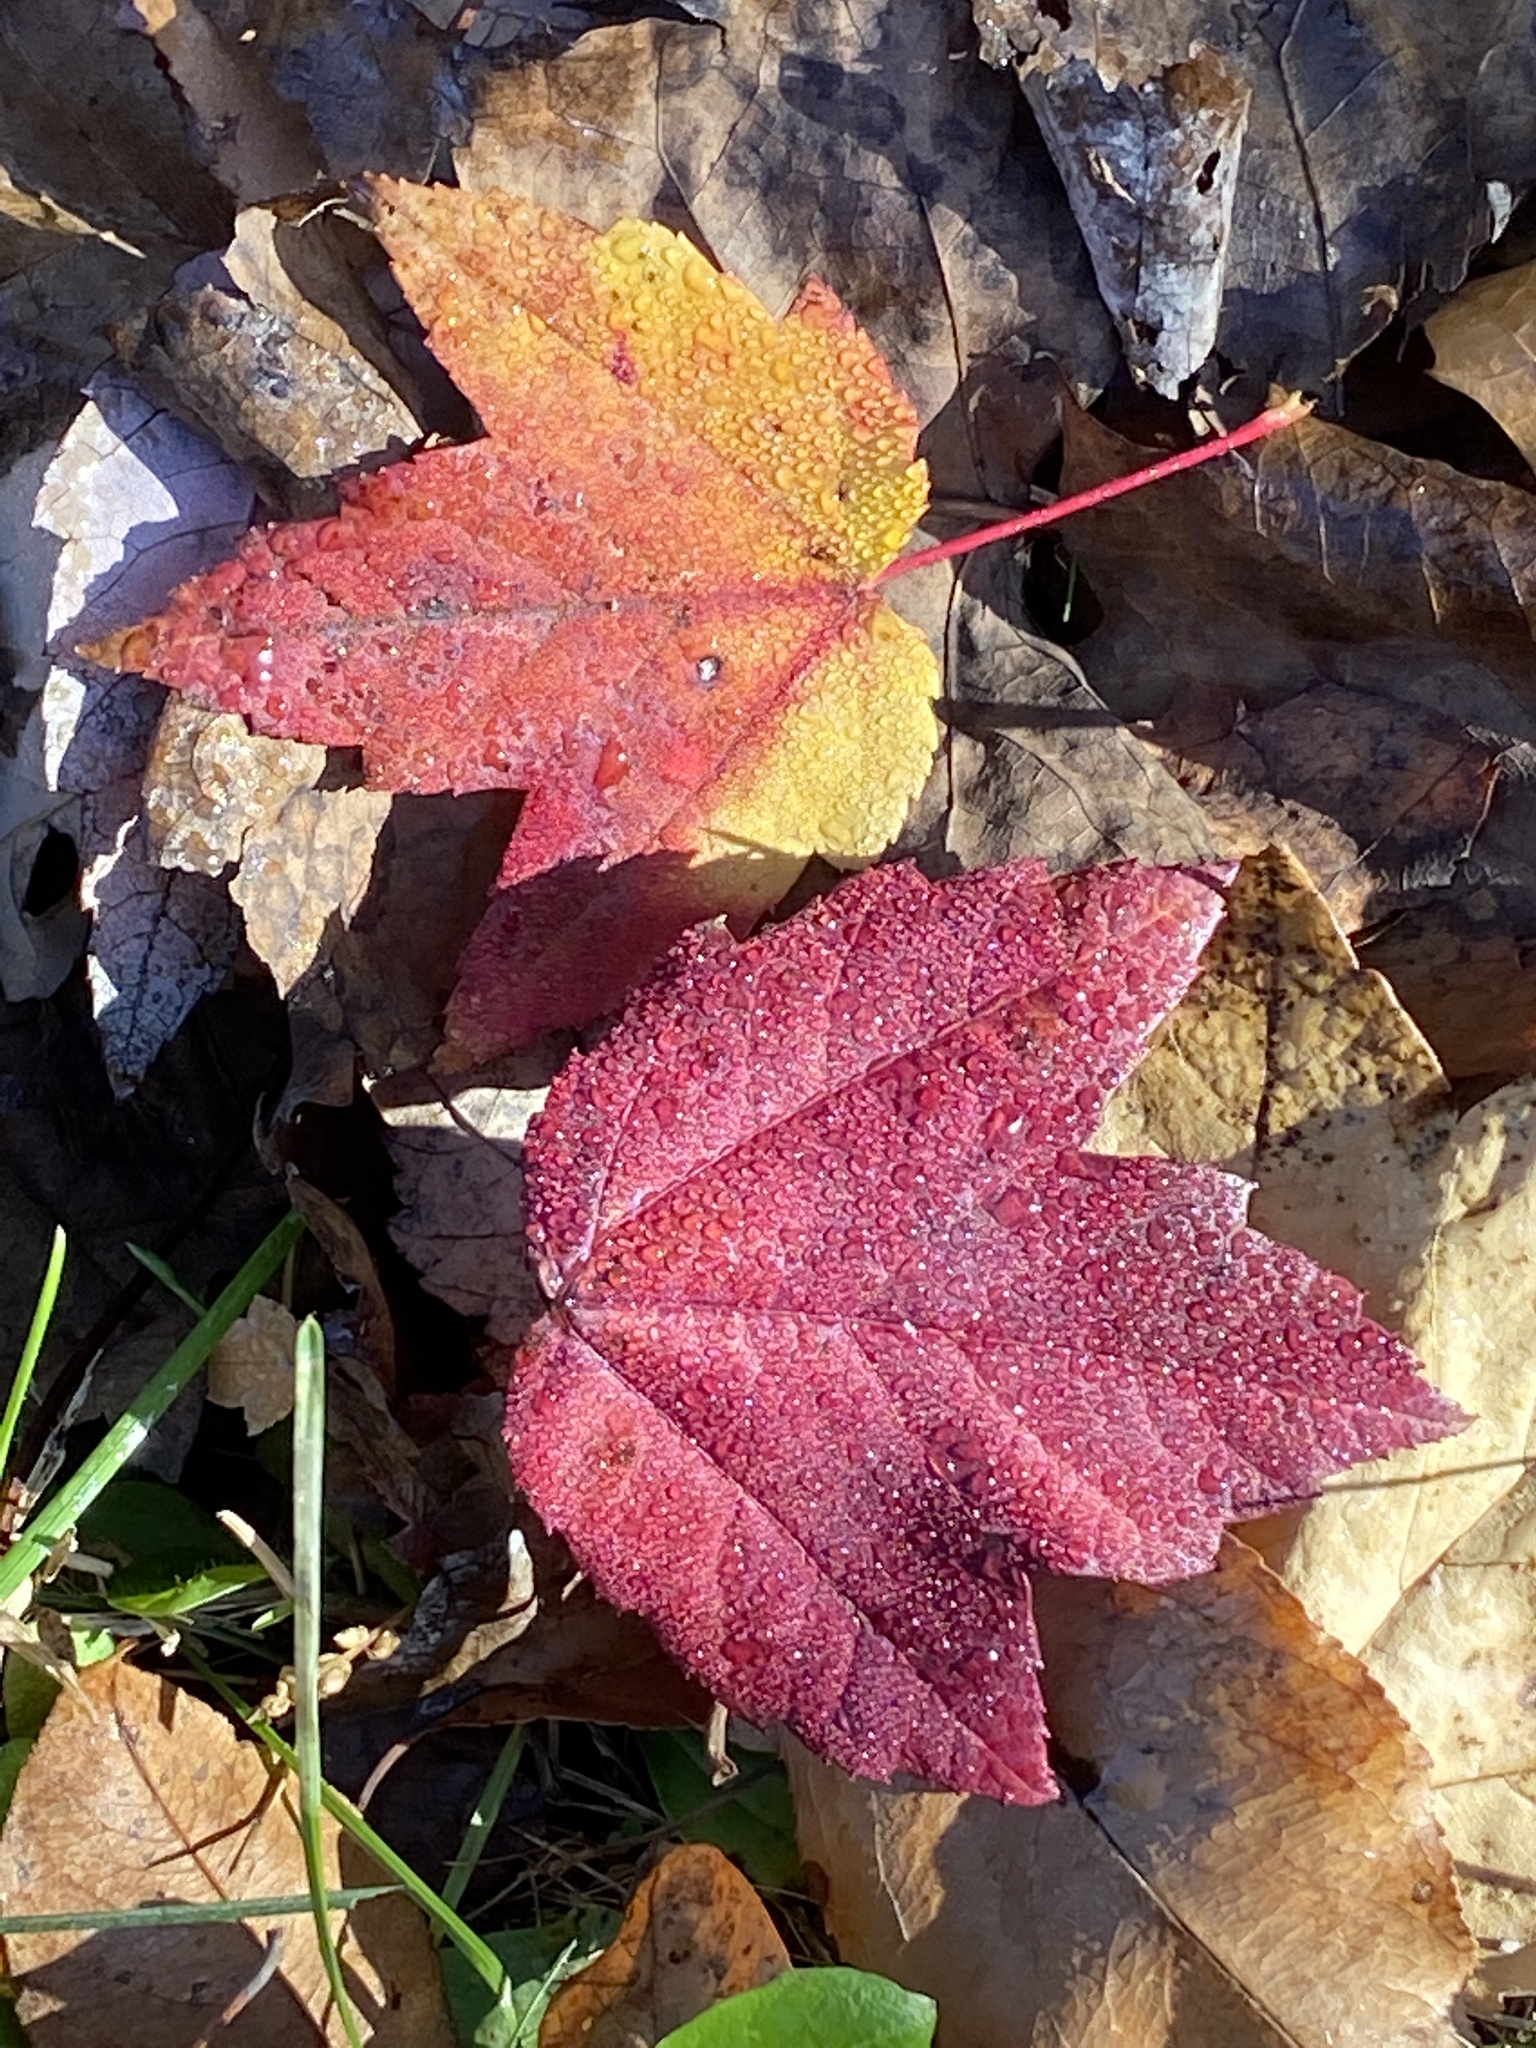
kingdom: Plantae
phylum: Tracheophyta
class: Magnoliopsida
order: Sapindales
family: Sapindaceae
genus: Acer
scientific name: Acer rubrum
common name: Red maple
